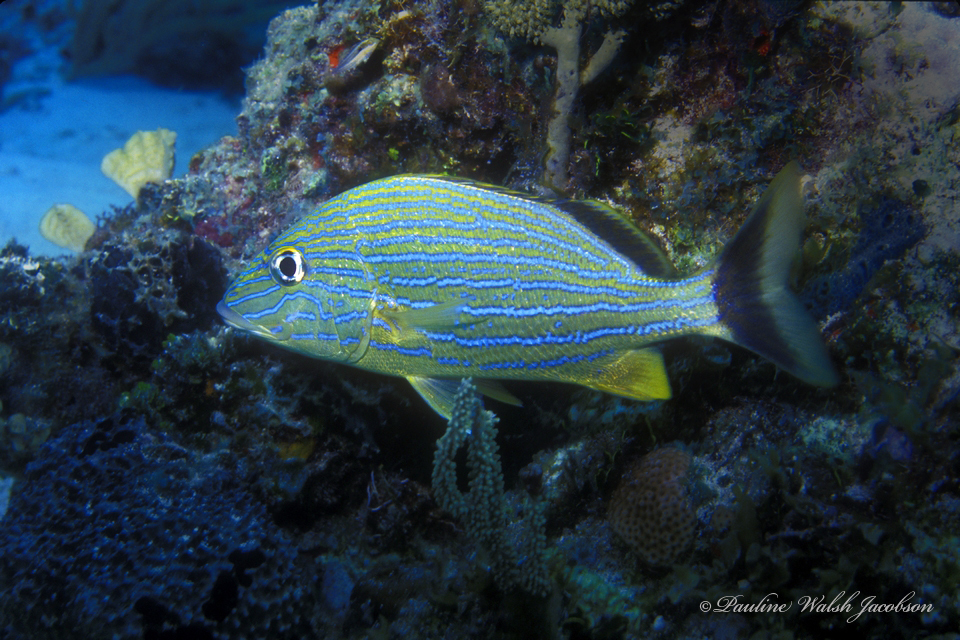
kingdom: Animalia
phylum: Chordata
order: Perciformes
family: Haemulidae
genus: Haemulon
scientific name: Haemulon sciurus
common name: Bluestriped grunt
